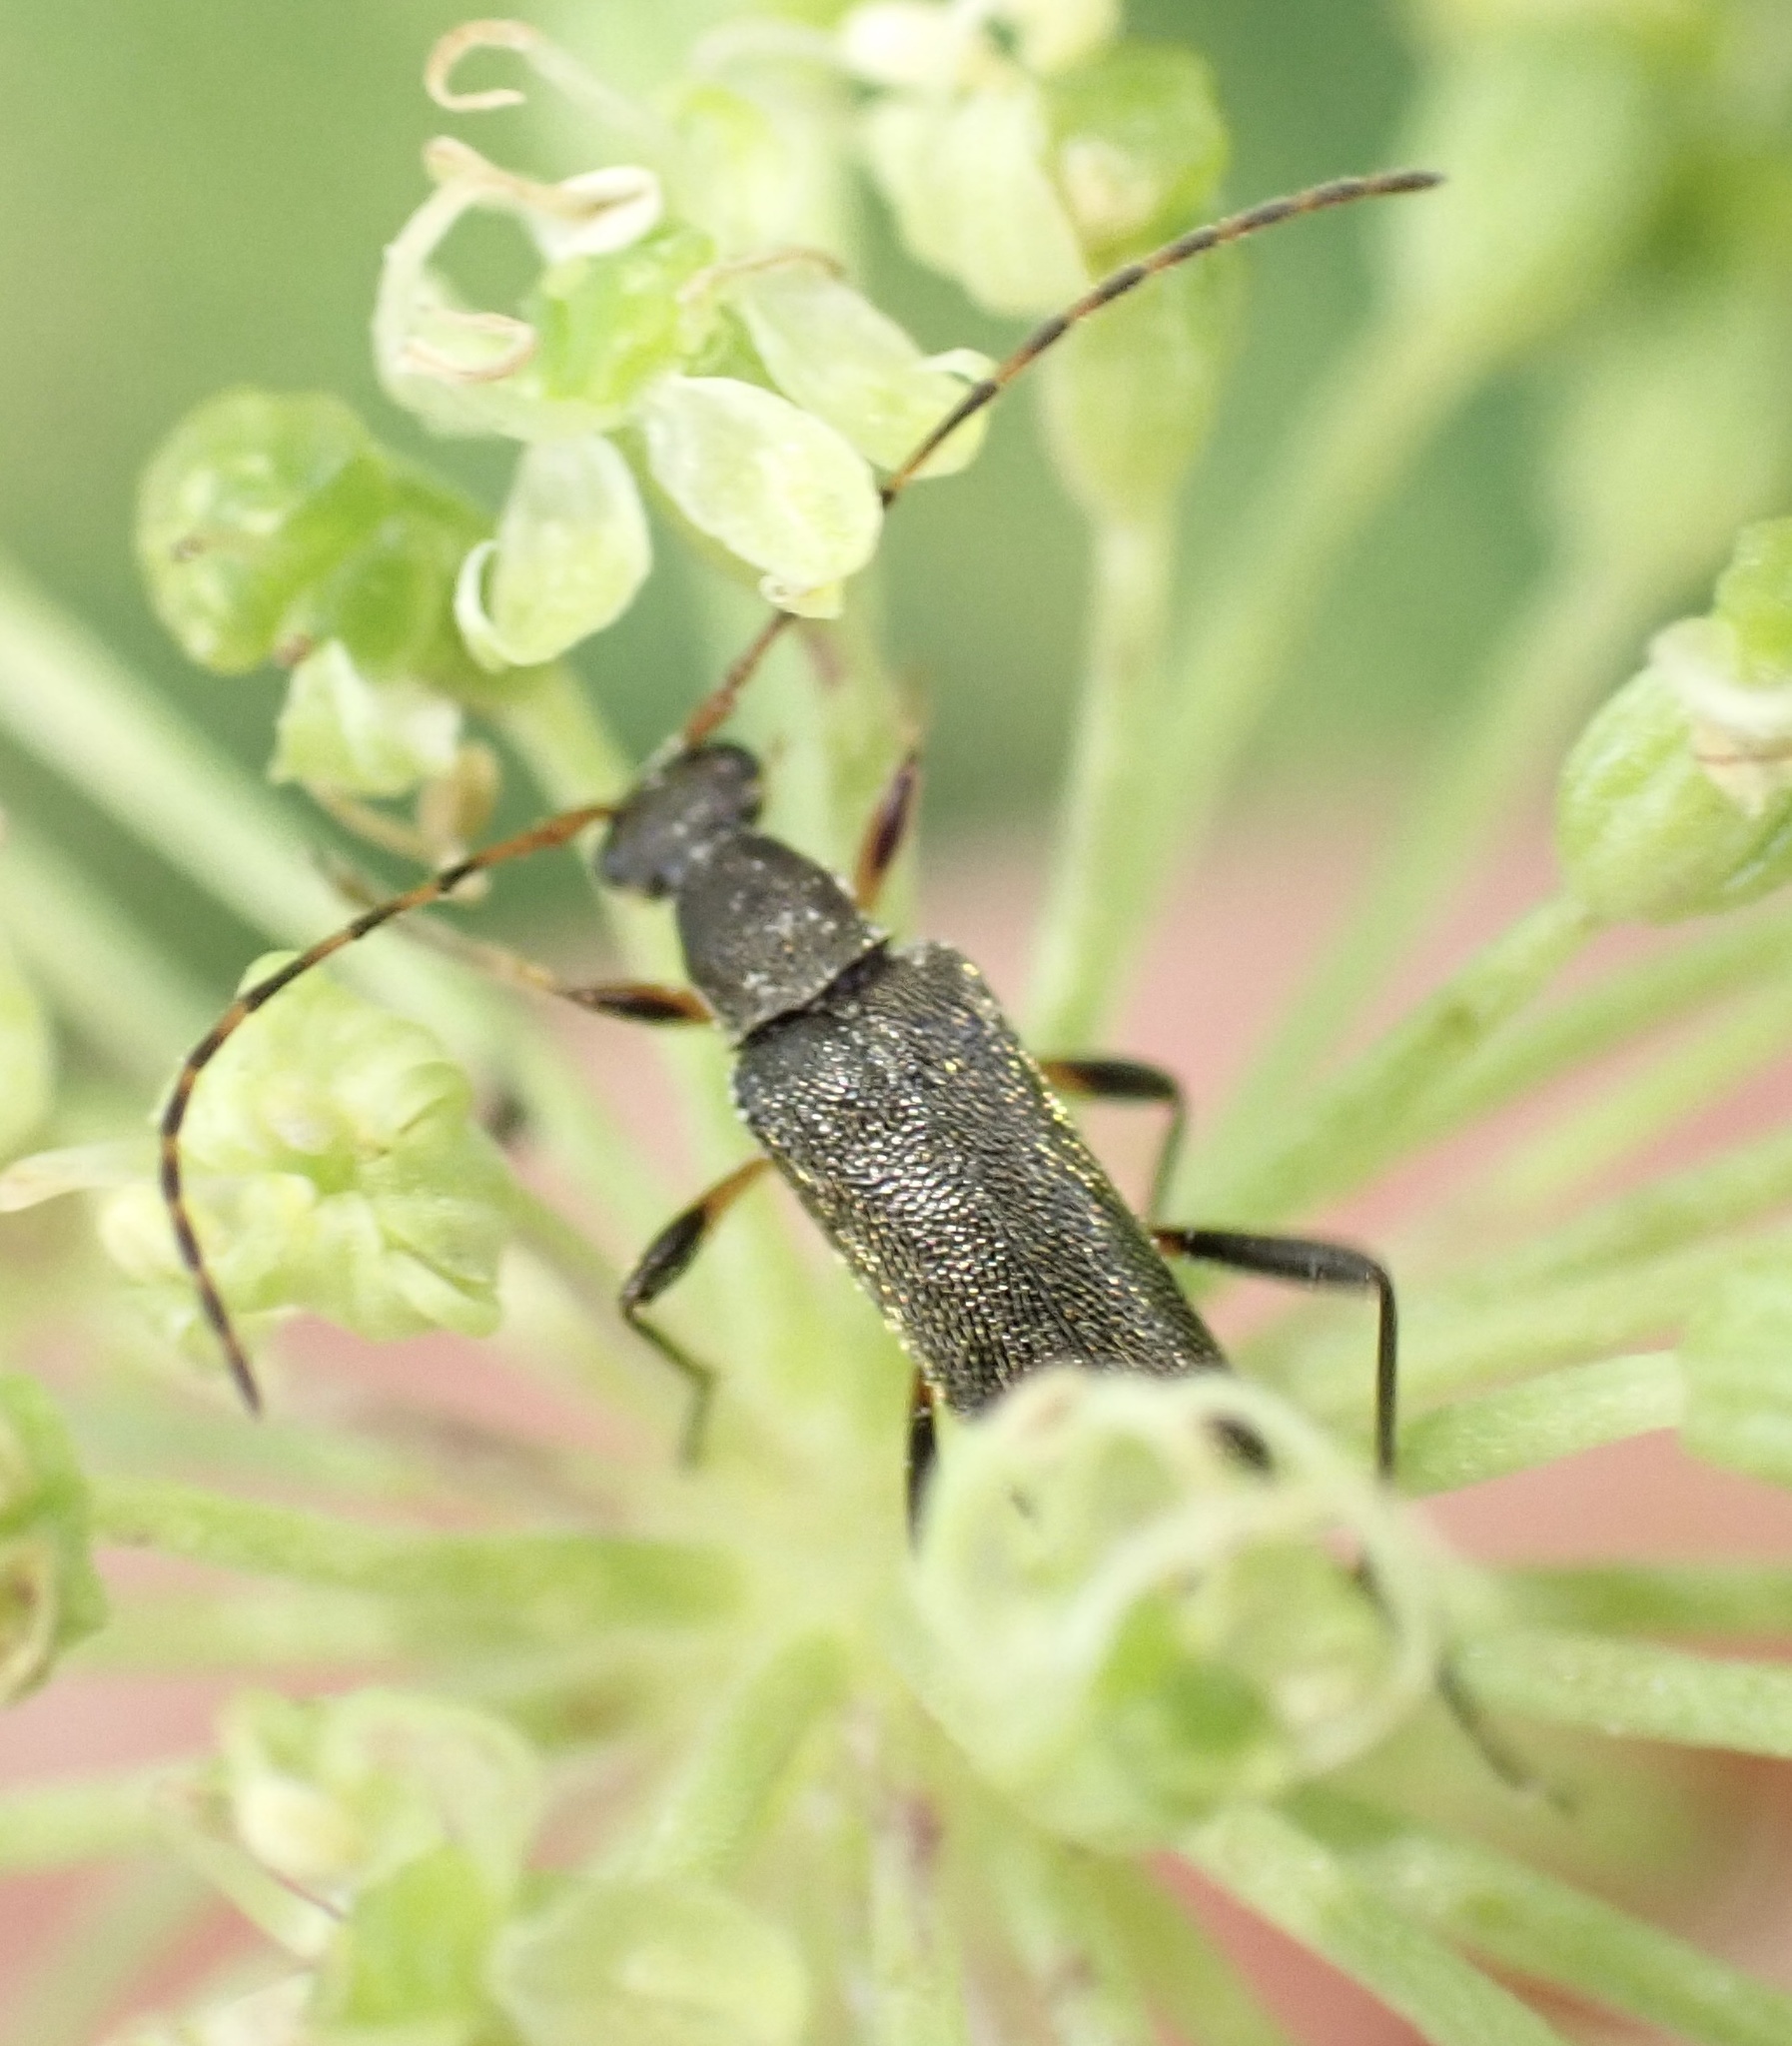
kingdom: Animalia
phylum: Arthropoda
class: Insecta
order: Coleoptera
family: Cerambycidae
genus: Grammoptera
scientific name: Grammoptera ruficornis
